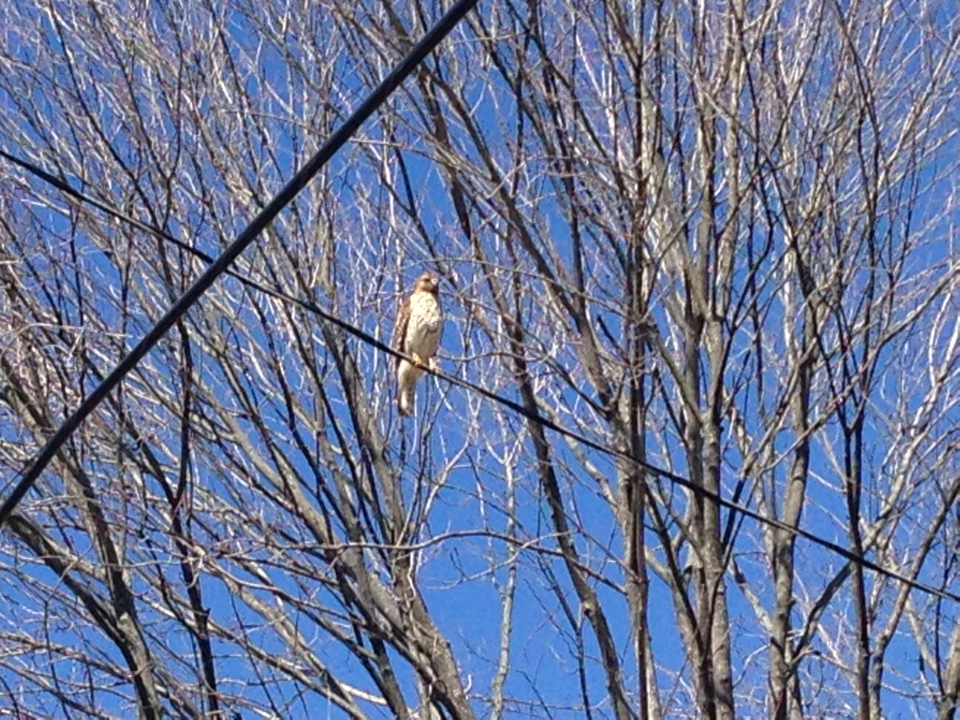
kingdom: Animalia
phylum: Chordata
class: Aves
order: Accipitriformes
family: Accipitridae
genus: Buteo
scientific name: Buteo jamaicensis
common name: Red-tailed hawk
